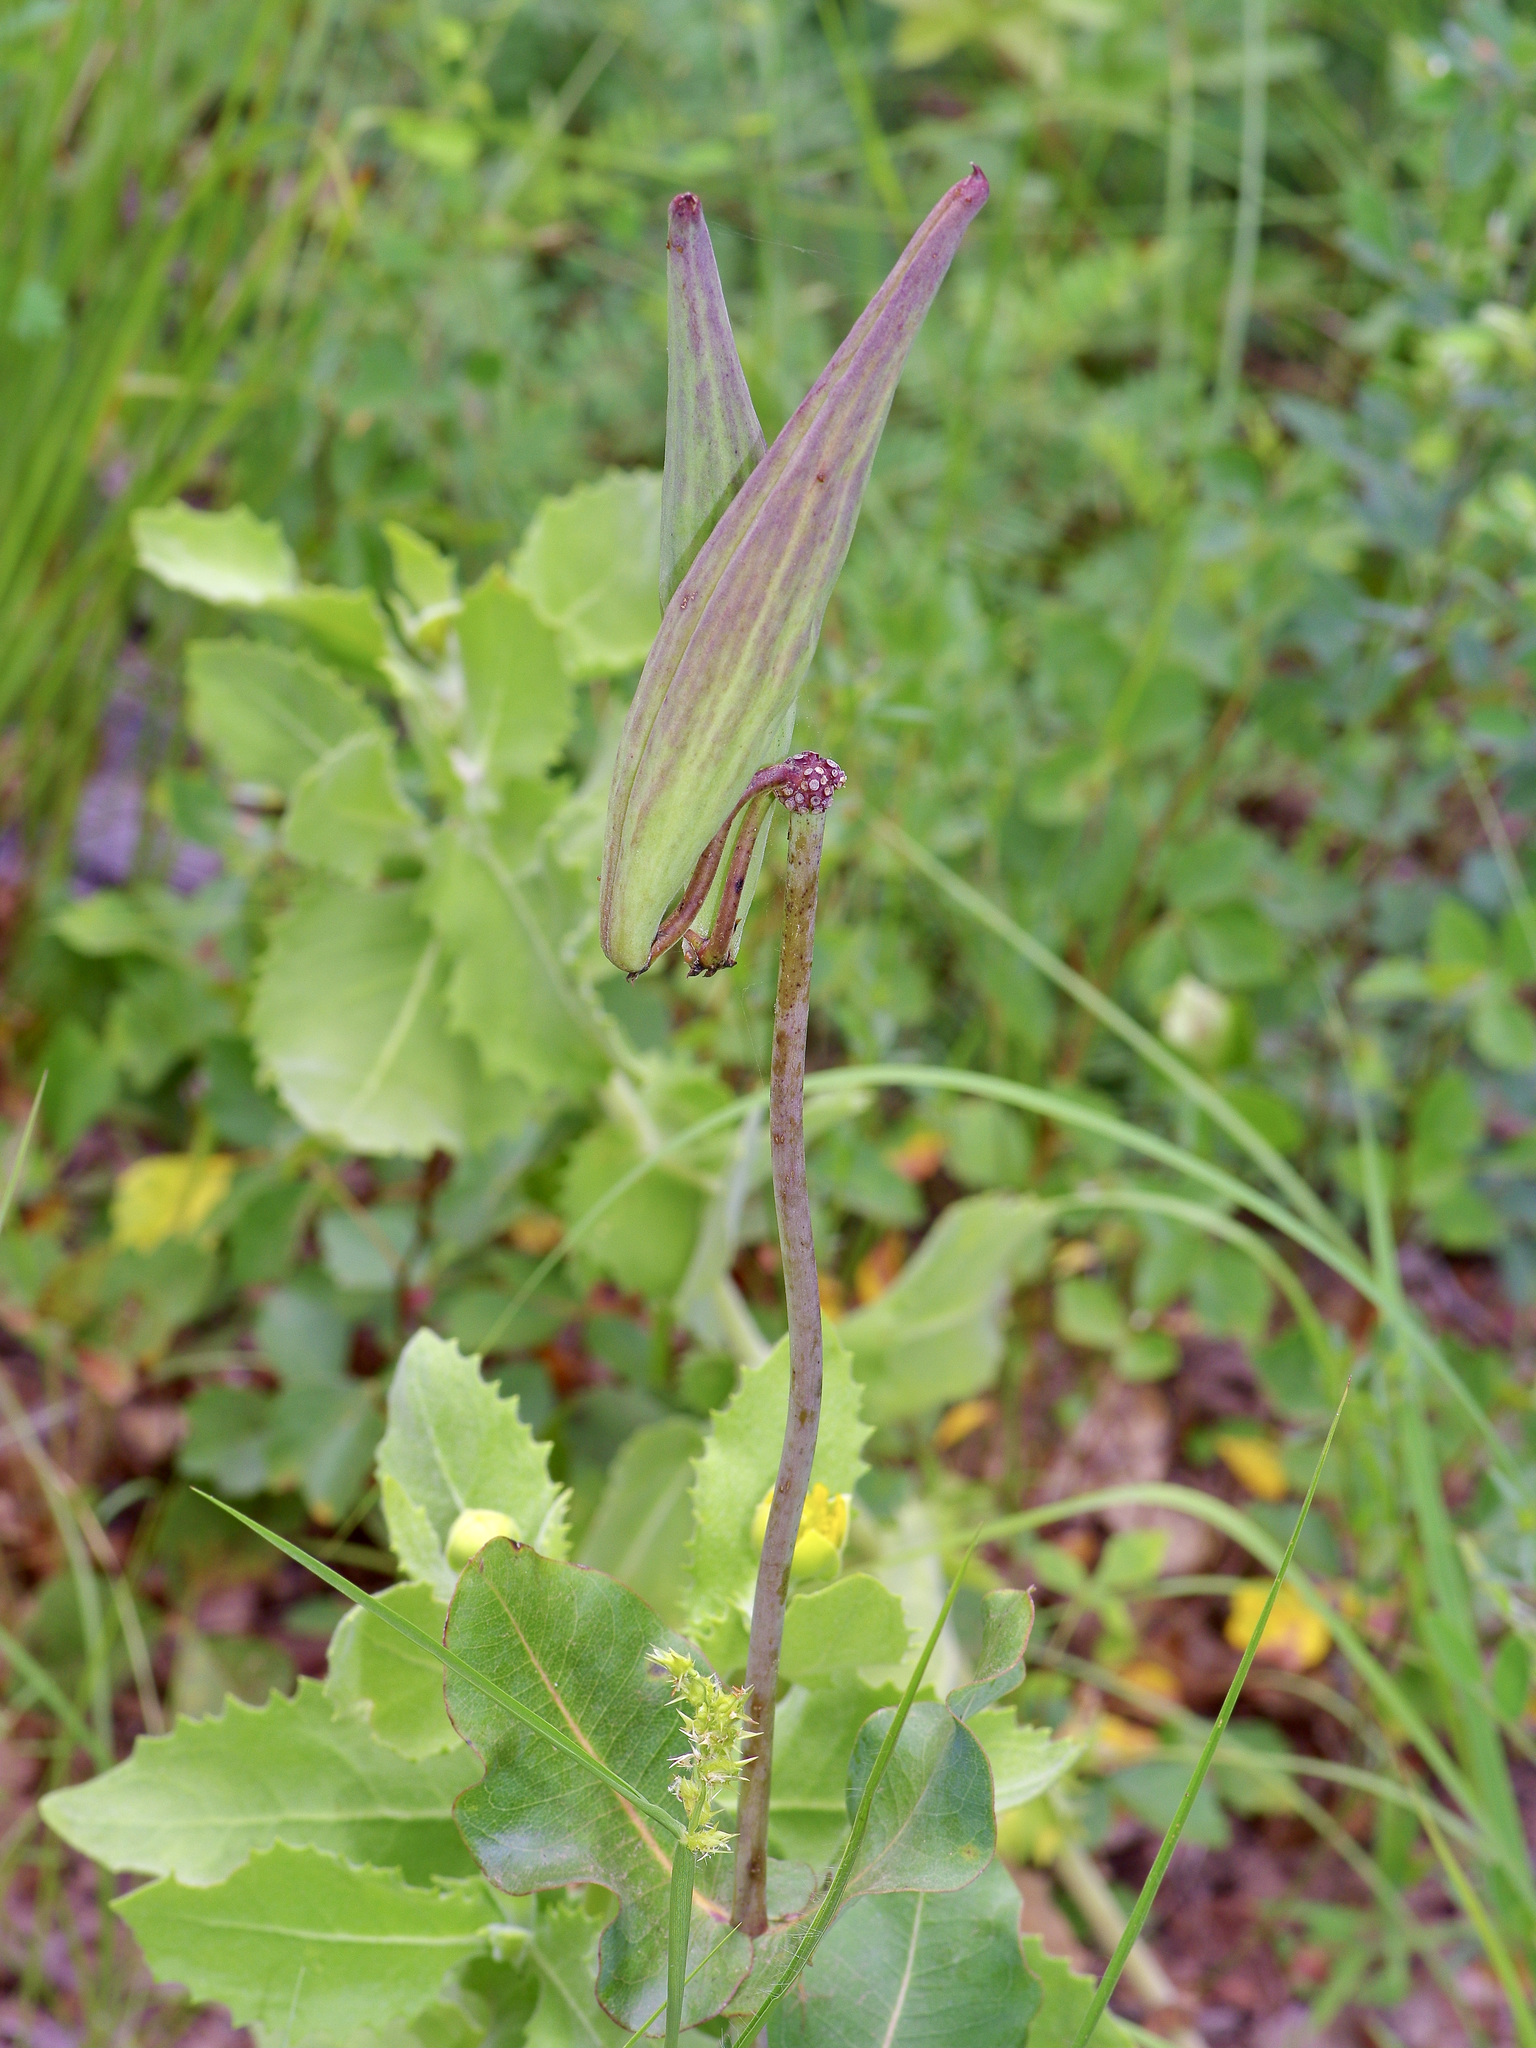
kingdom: Plantae
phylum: Tracheophyta
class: Magnoliopsida
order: Gentianales
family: Apocynaceae
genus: Asclepias
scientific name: Asclepias amplexicaulis
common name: Blunt-leaf milkweed
